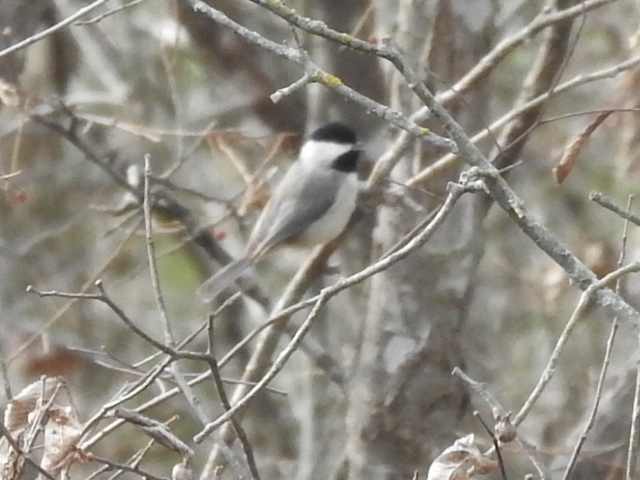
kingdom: Animalia
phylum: Chordata
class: Aves
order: Passeriformes
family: Paridae
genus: Poecile
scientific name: Poecile carolinensis
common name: Carolina chickadee
